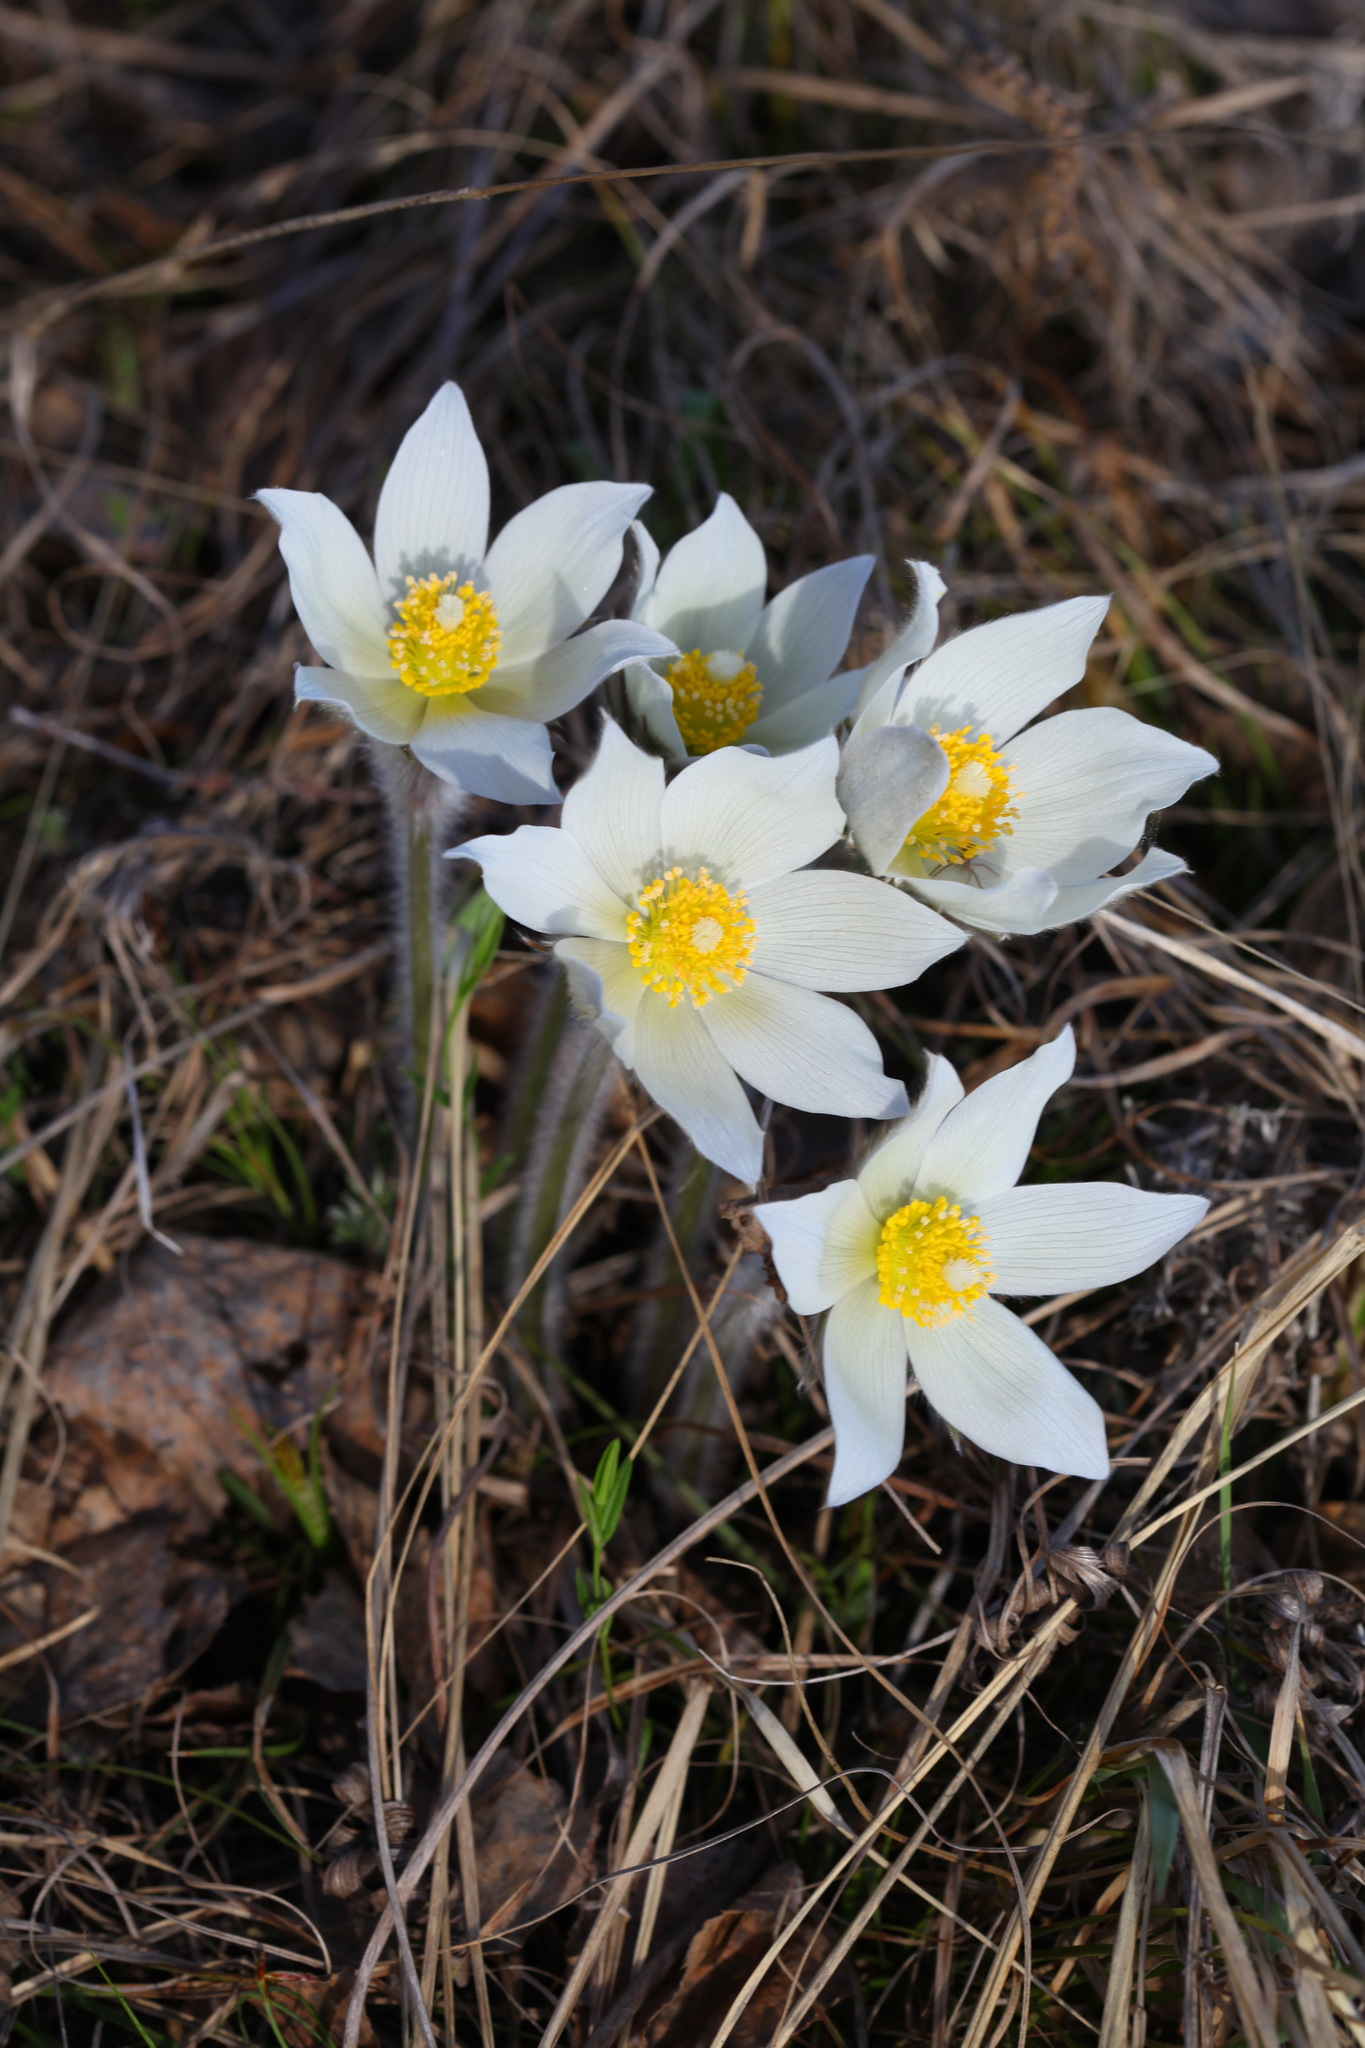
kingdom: Plantae
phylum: Tracheophyta
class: Magnoliopsida
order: Ranunculales
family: Ranunculaceae
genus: Pulsatilla
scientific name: Pulsatilla patens
